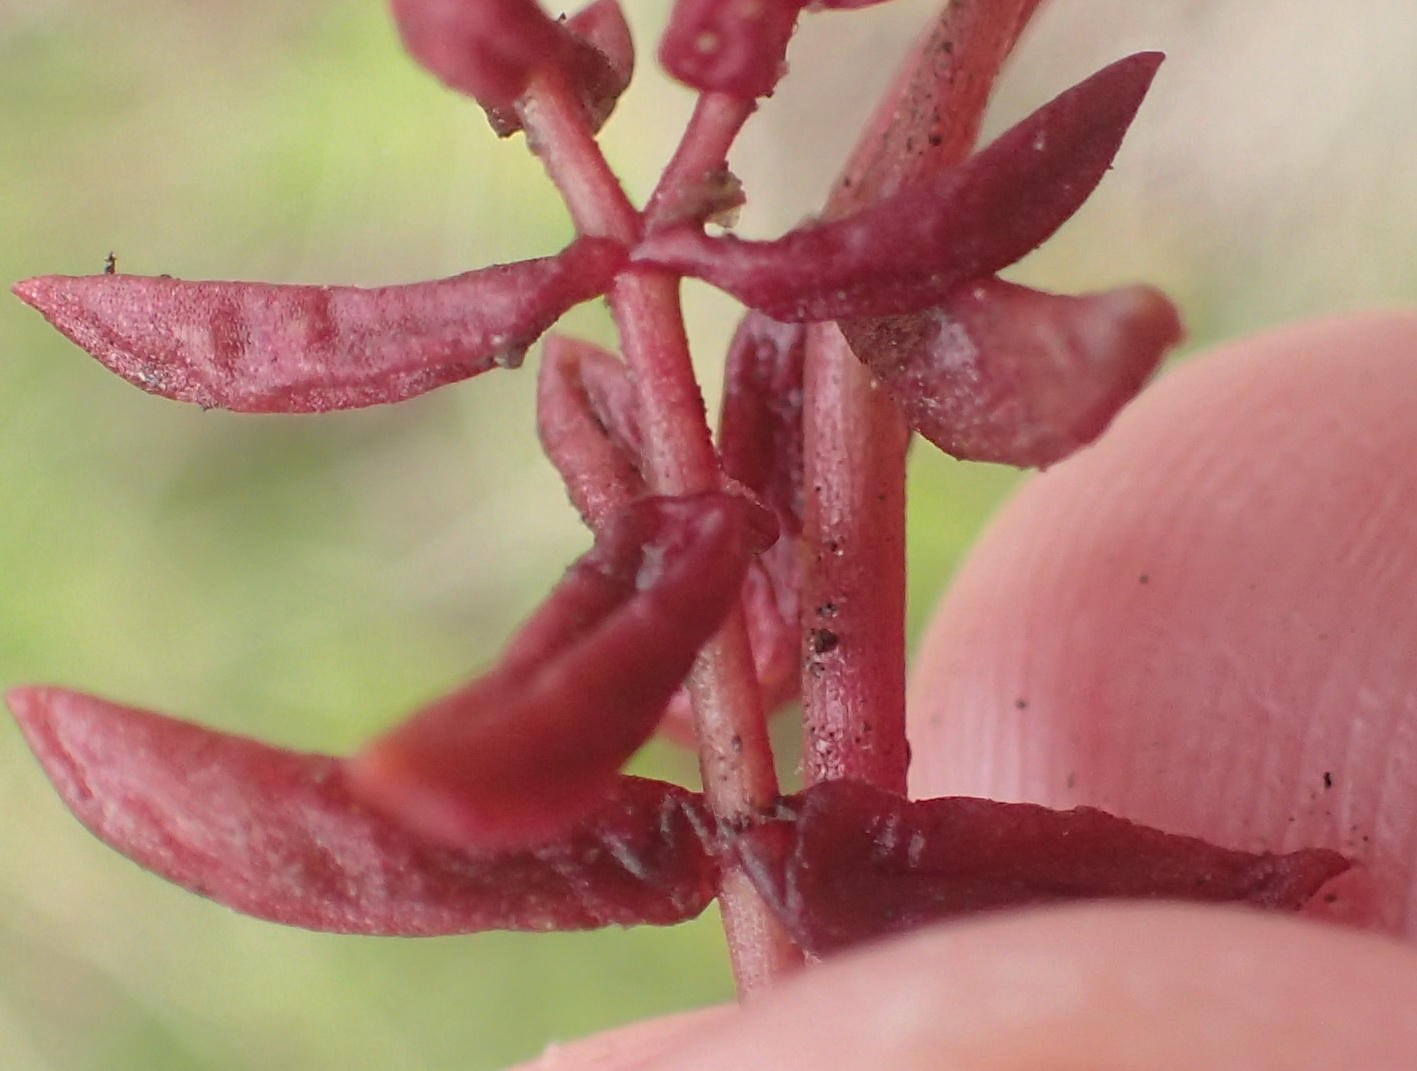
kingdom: Plantae
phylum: Tracheophyta
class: Magnoliopsida
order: Saxifragales
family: Crassulaceae
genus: Crassula
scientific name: Crassula expansa
